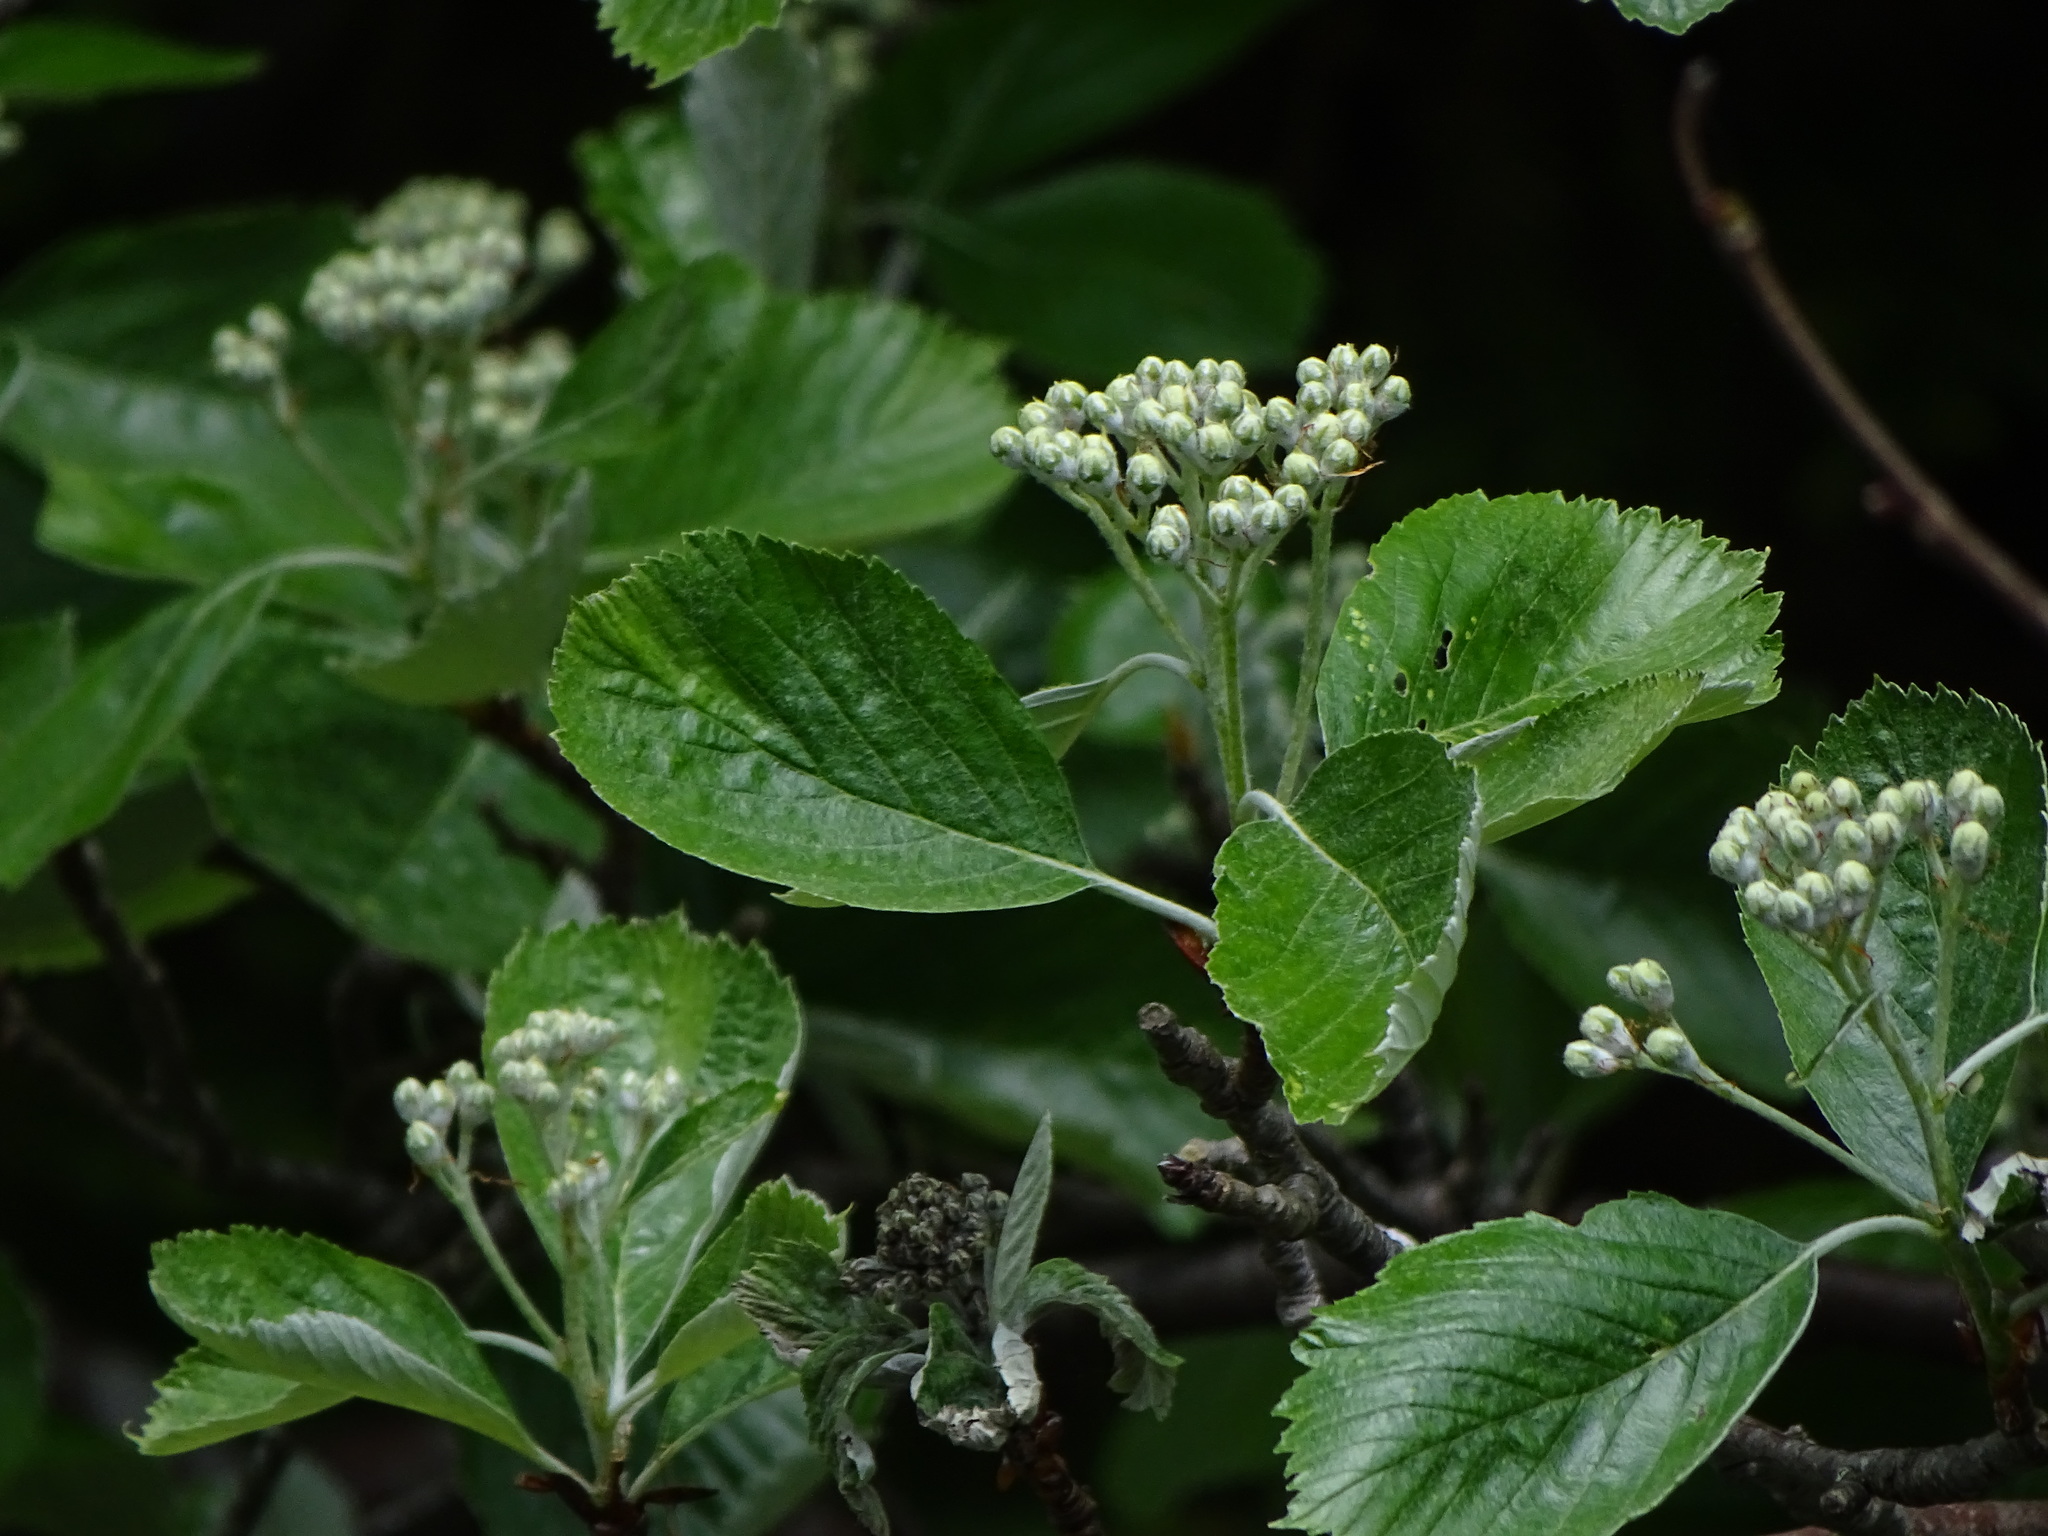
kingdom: Plantae
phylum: Tracheophyta
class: Magnoliopsida
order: Rosales
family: Rosaceae
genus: Aria
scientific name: Aria rupicola
